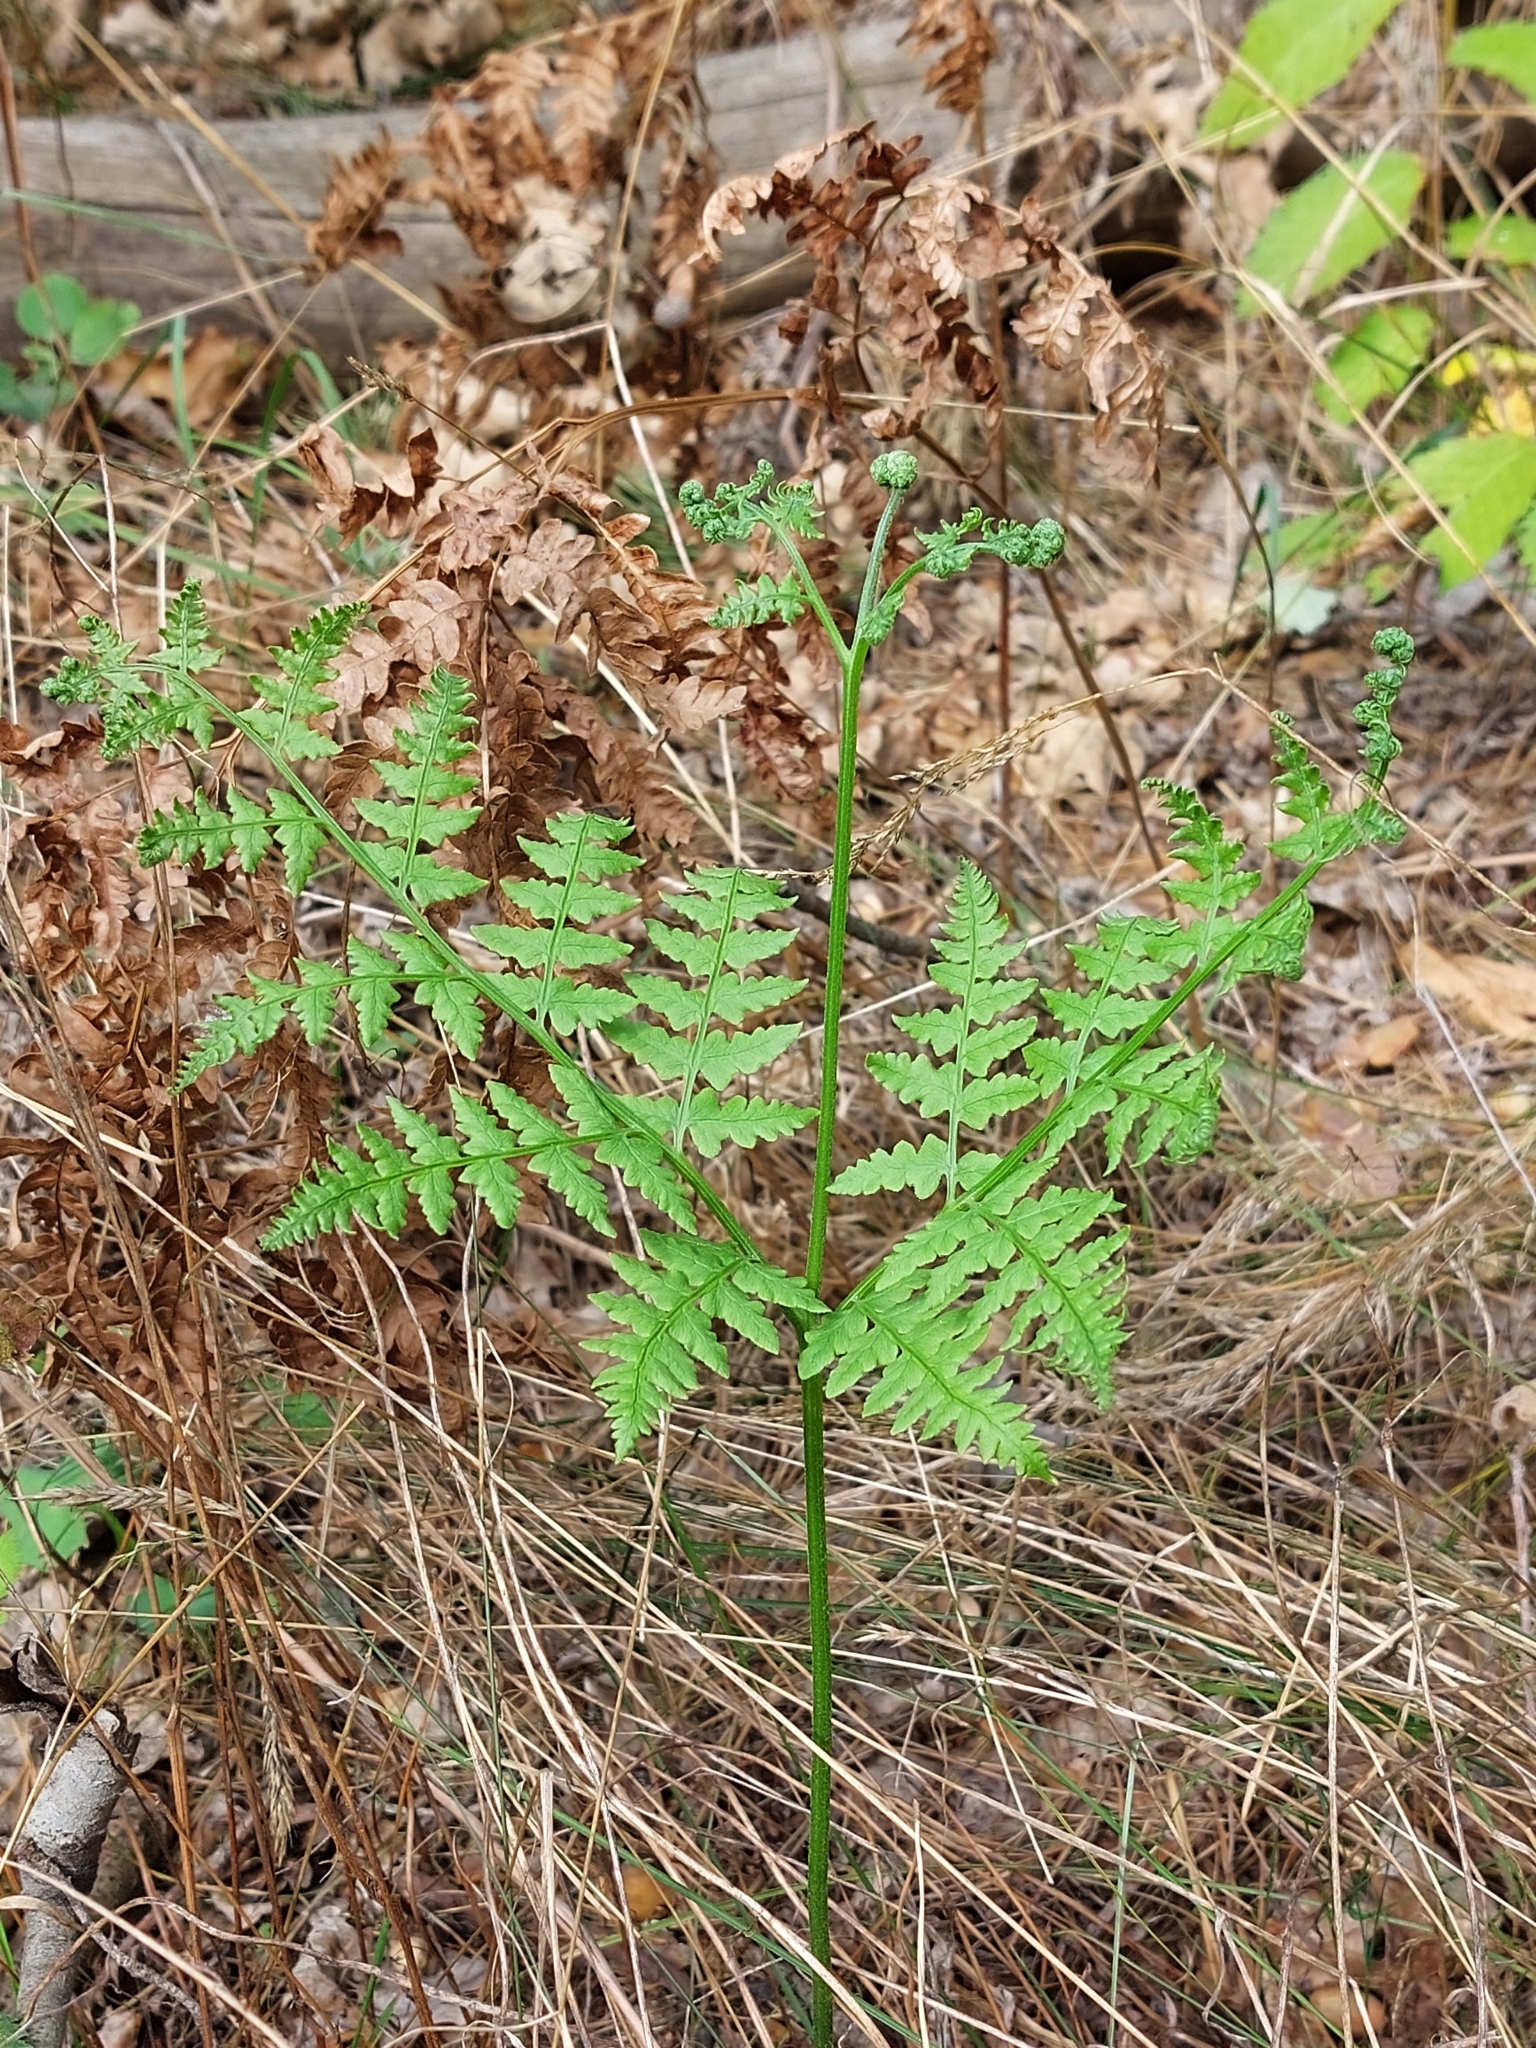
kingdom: Plantae
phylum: Tracheophyta
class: Polypodiopsida
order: Polypodiales
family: Dennstaedtiaceae
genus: Pteridium
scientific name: Pteridium aquilinum
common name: Bracken
